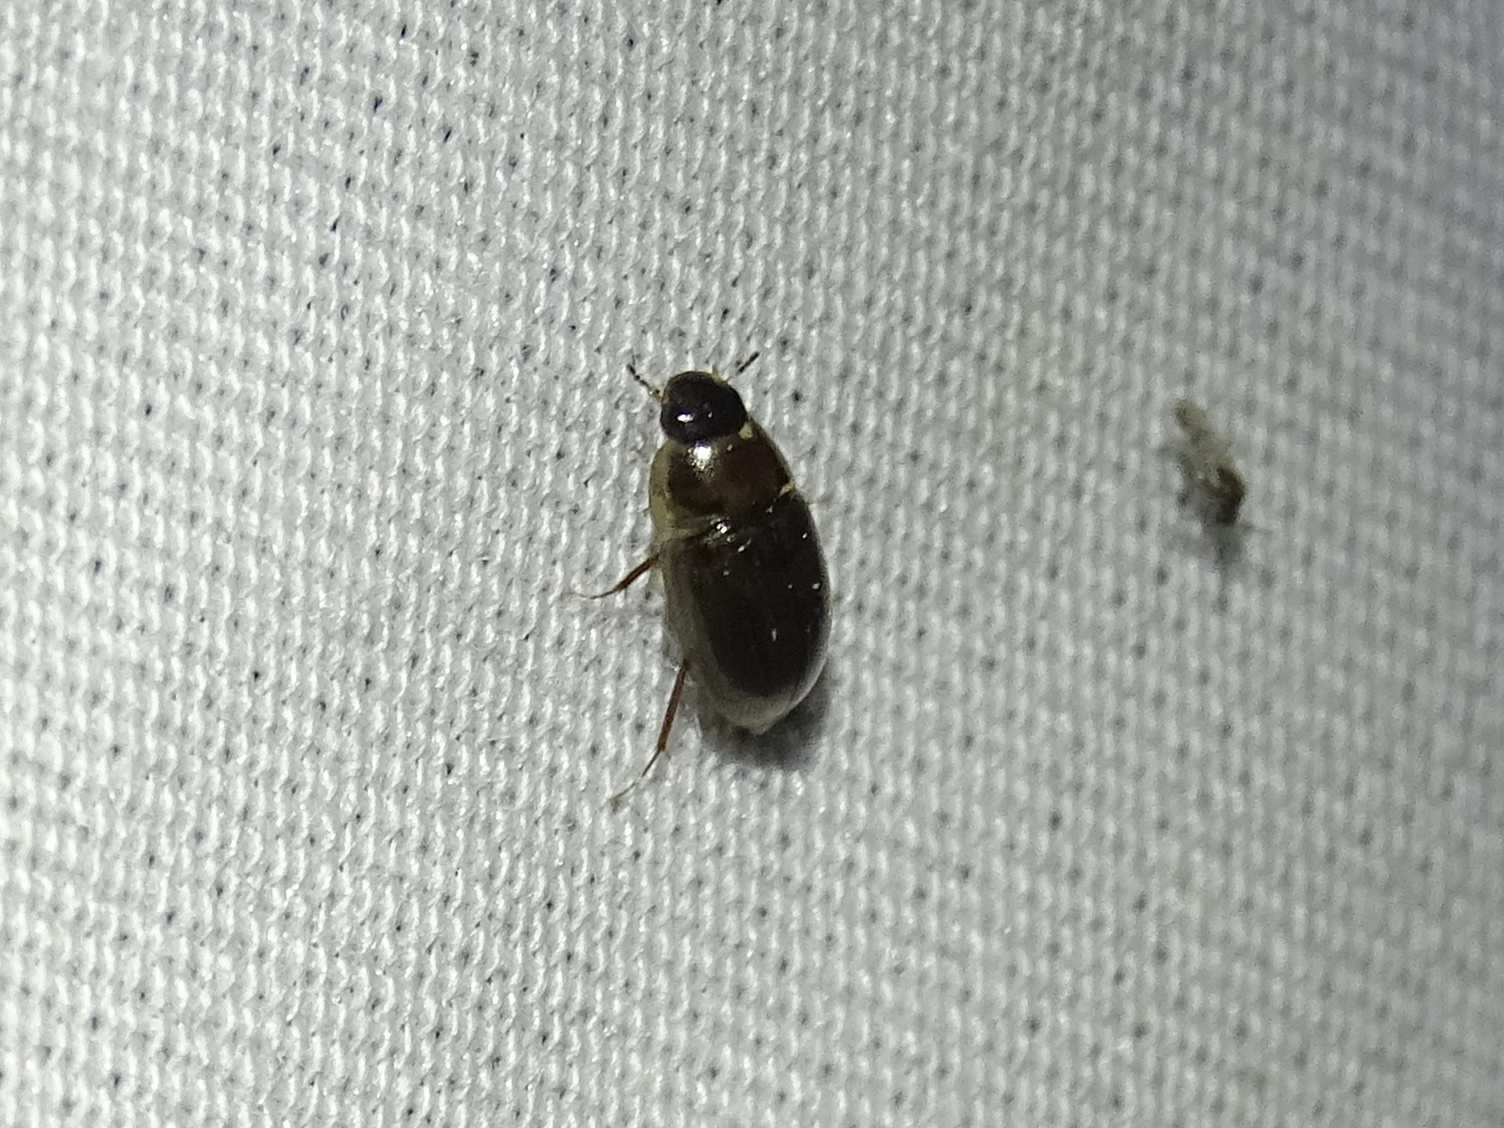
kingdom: Animalia
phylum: Arthropoda
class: Insecta
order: Coleoptera
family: Hydrophilidae
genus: Enochrus
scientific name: Enochrus
